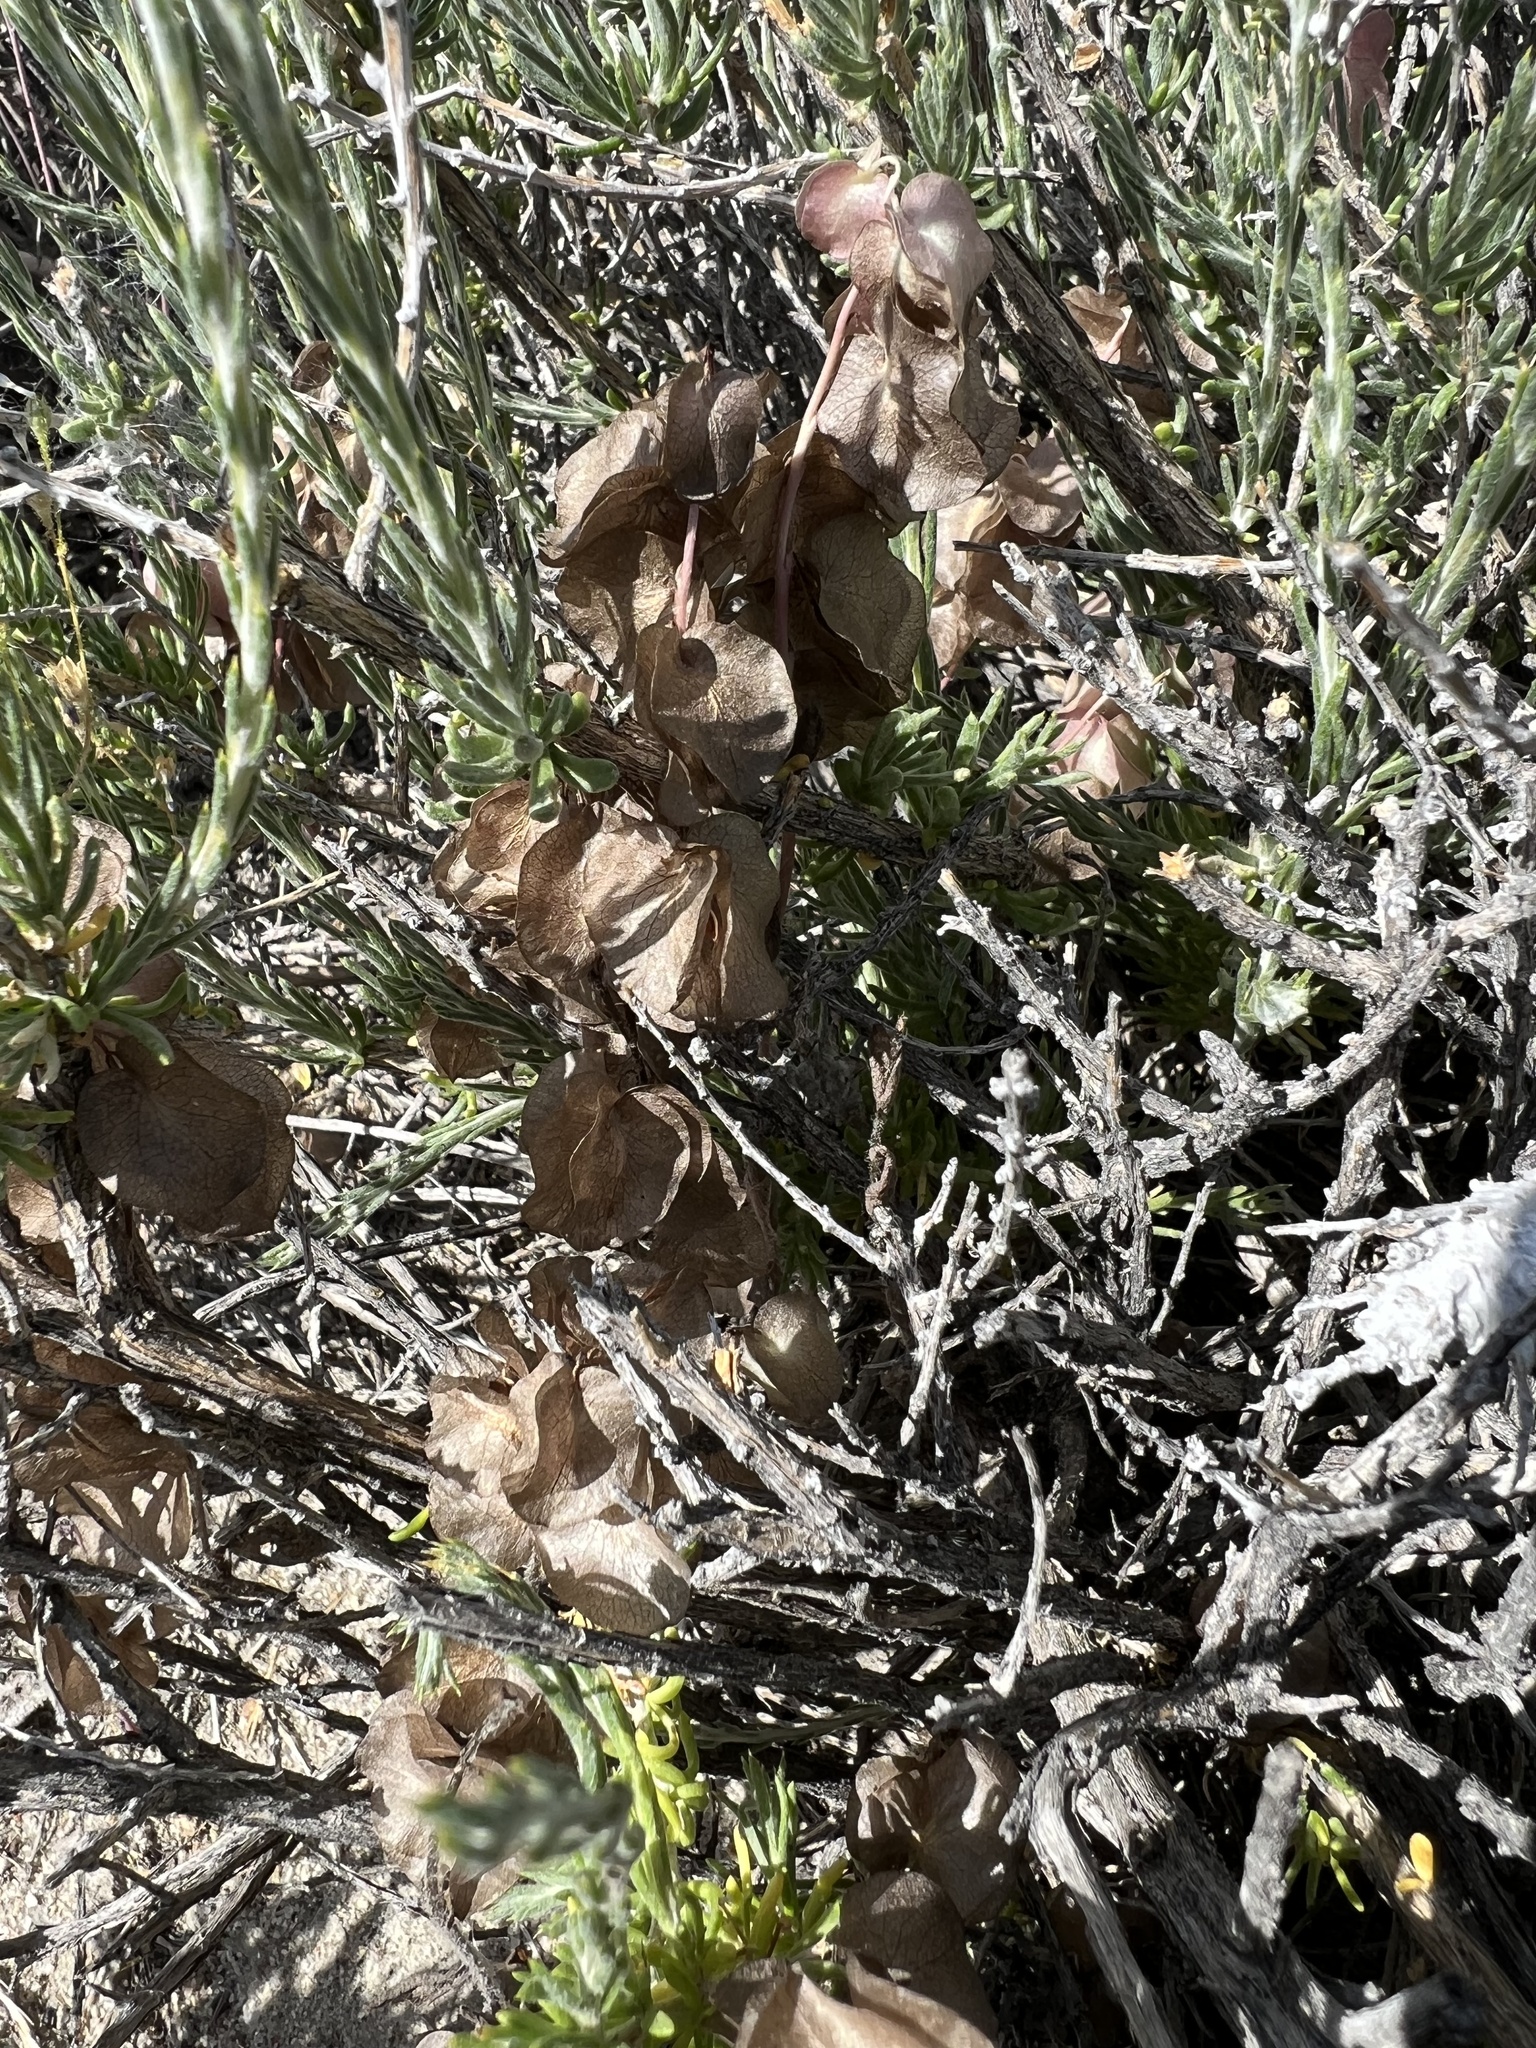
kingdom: Plantae
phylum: Tracheophyta
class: Magnoliopsida
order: Boraginales
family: Hydrophyllaceae
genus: Tricardia
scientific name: Tricardia watsonii
